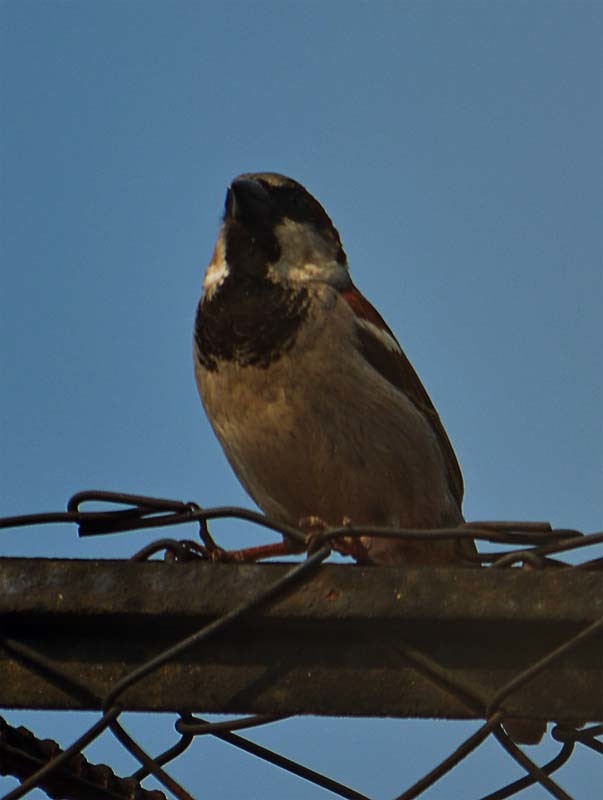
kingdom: Animalia
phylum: Chordata
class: Aves
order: Passeriformes
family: Passeridae
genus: Passer
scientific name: Passer domesticus
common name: House sparrow
